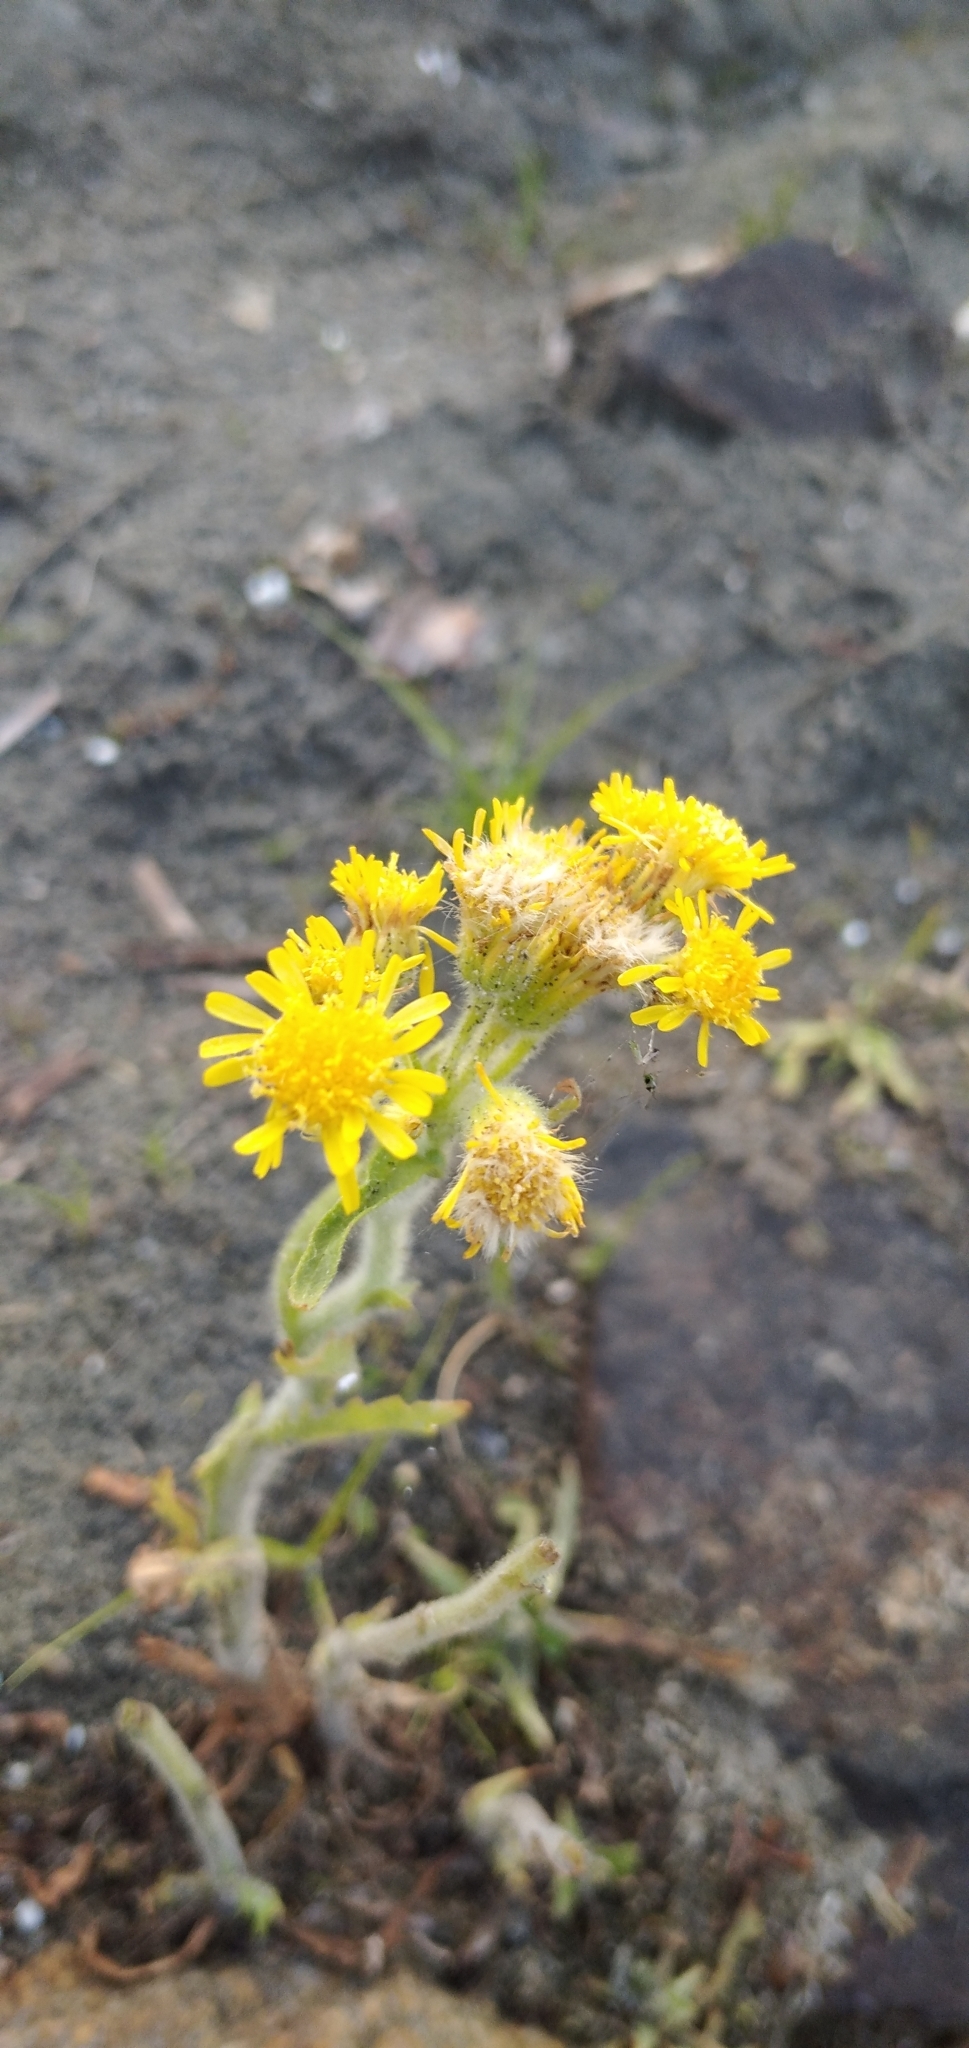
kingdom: Plantae
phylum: Tracheophyta
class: Magnoliopsida
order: Asterales
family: Asteraceae
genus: Tephroseris
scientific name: Tephroseris palustris
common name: Marsh fleawort
